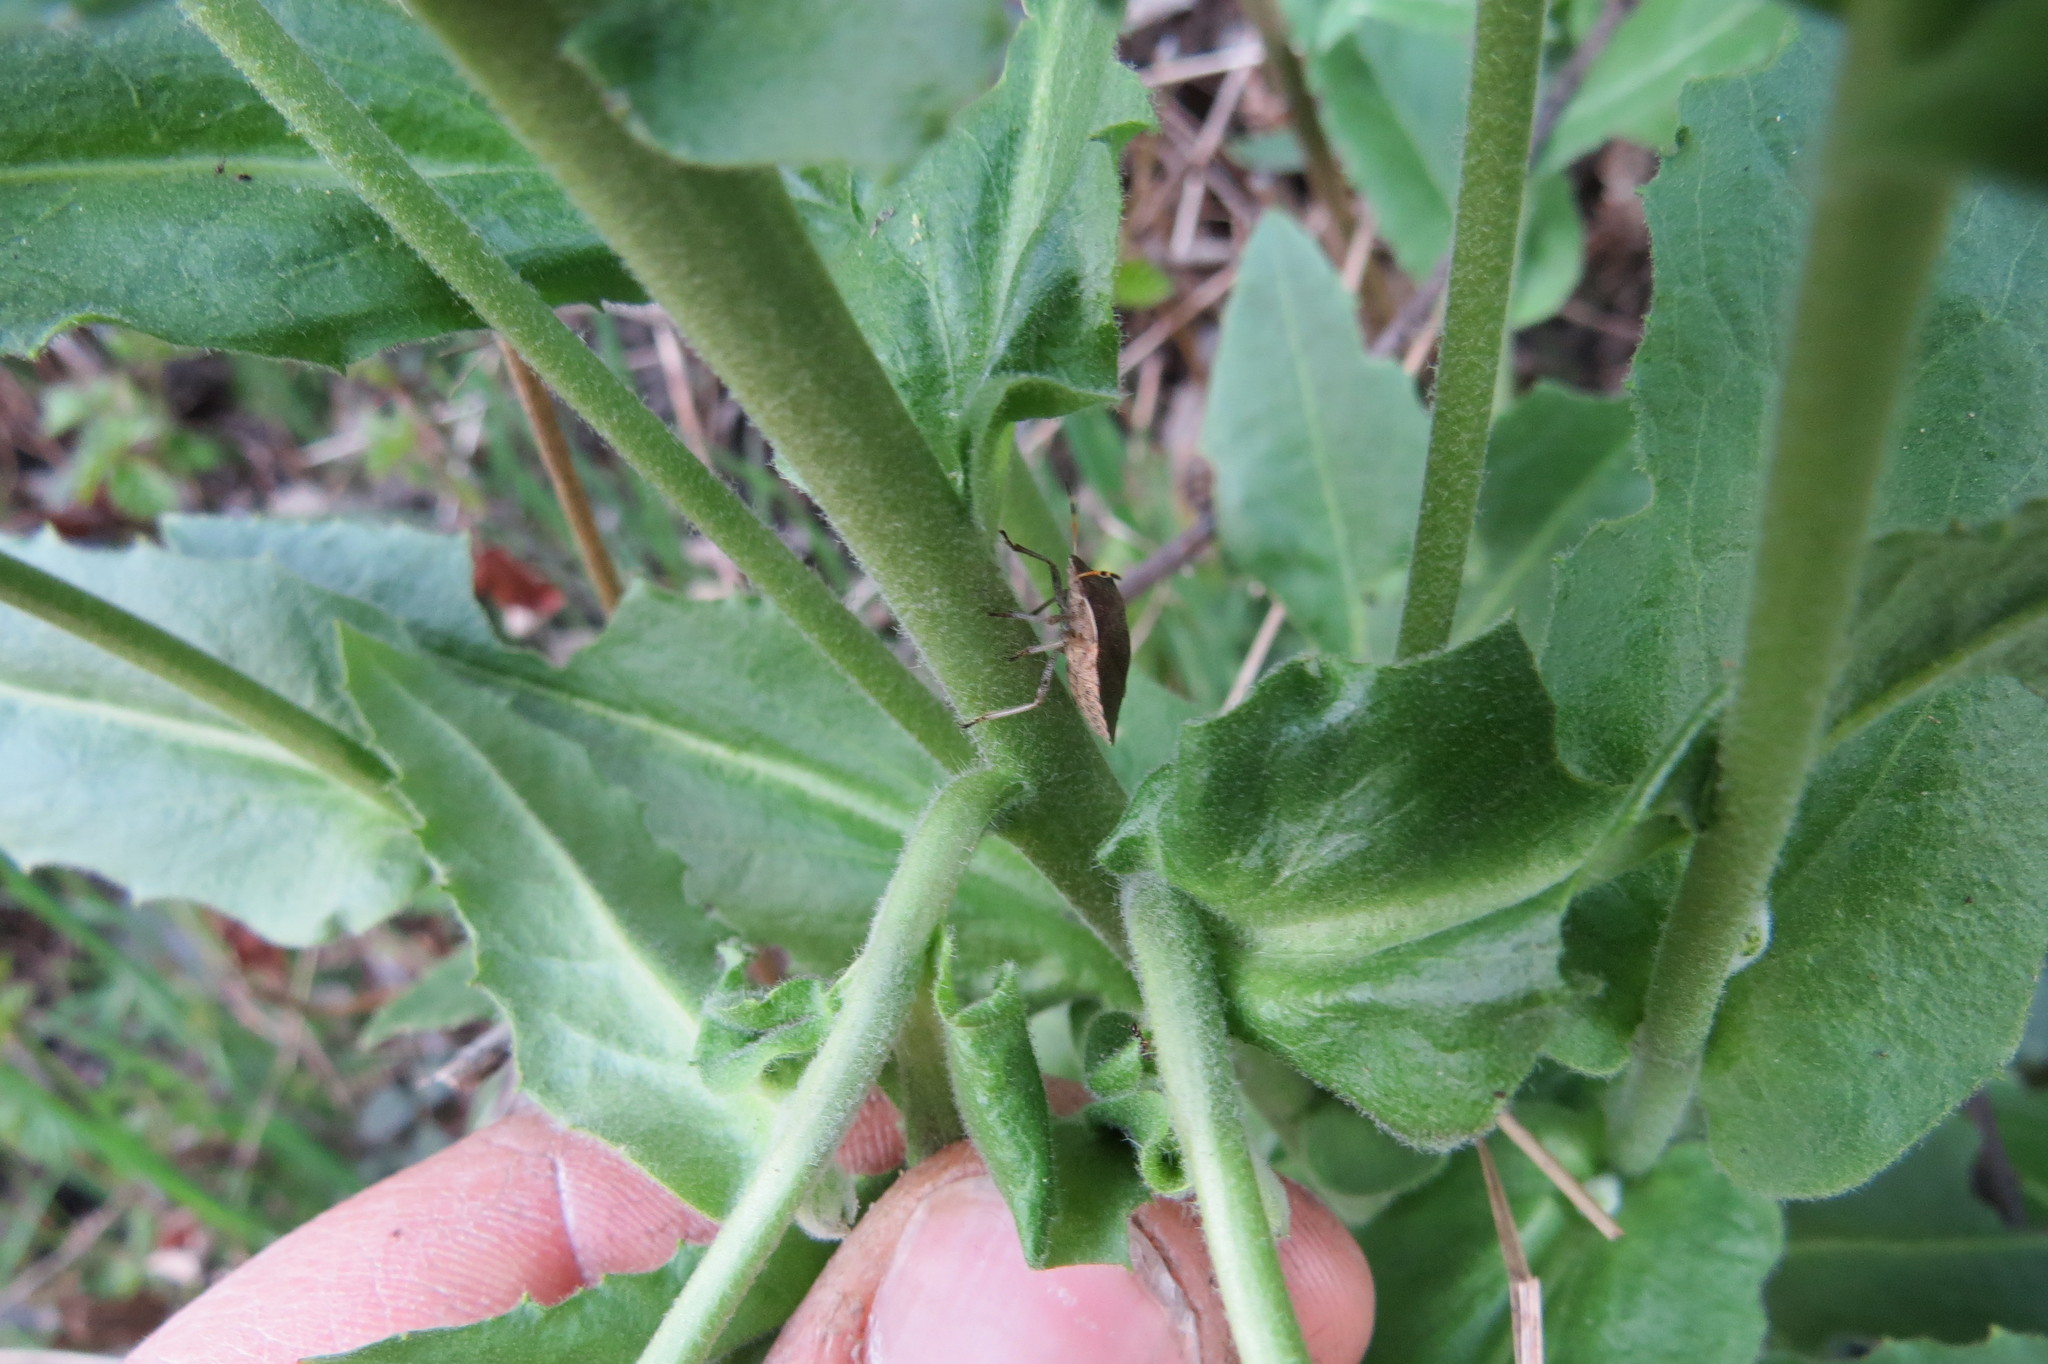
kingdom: Animalia
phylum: Arthropoda
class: Insecta
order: Hemiptera
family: Pentatomidae
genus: Holcostethus
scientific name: Holcostethus strictus
